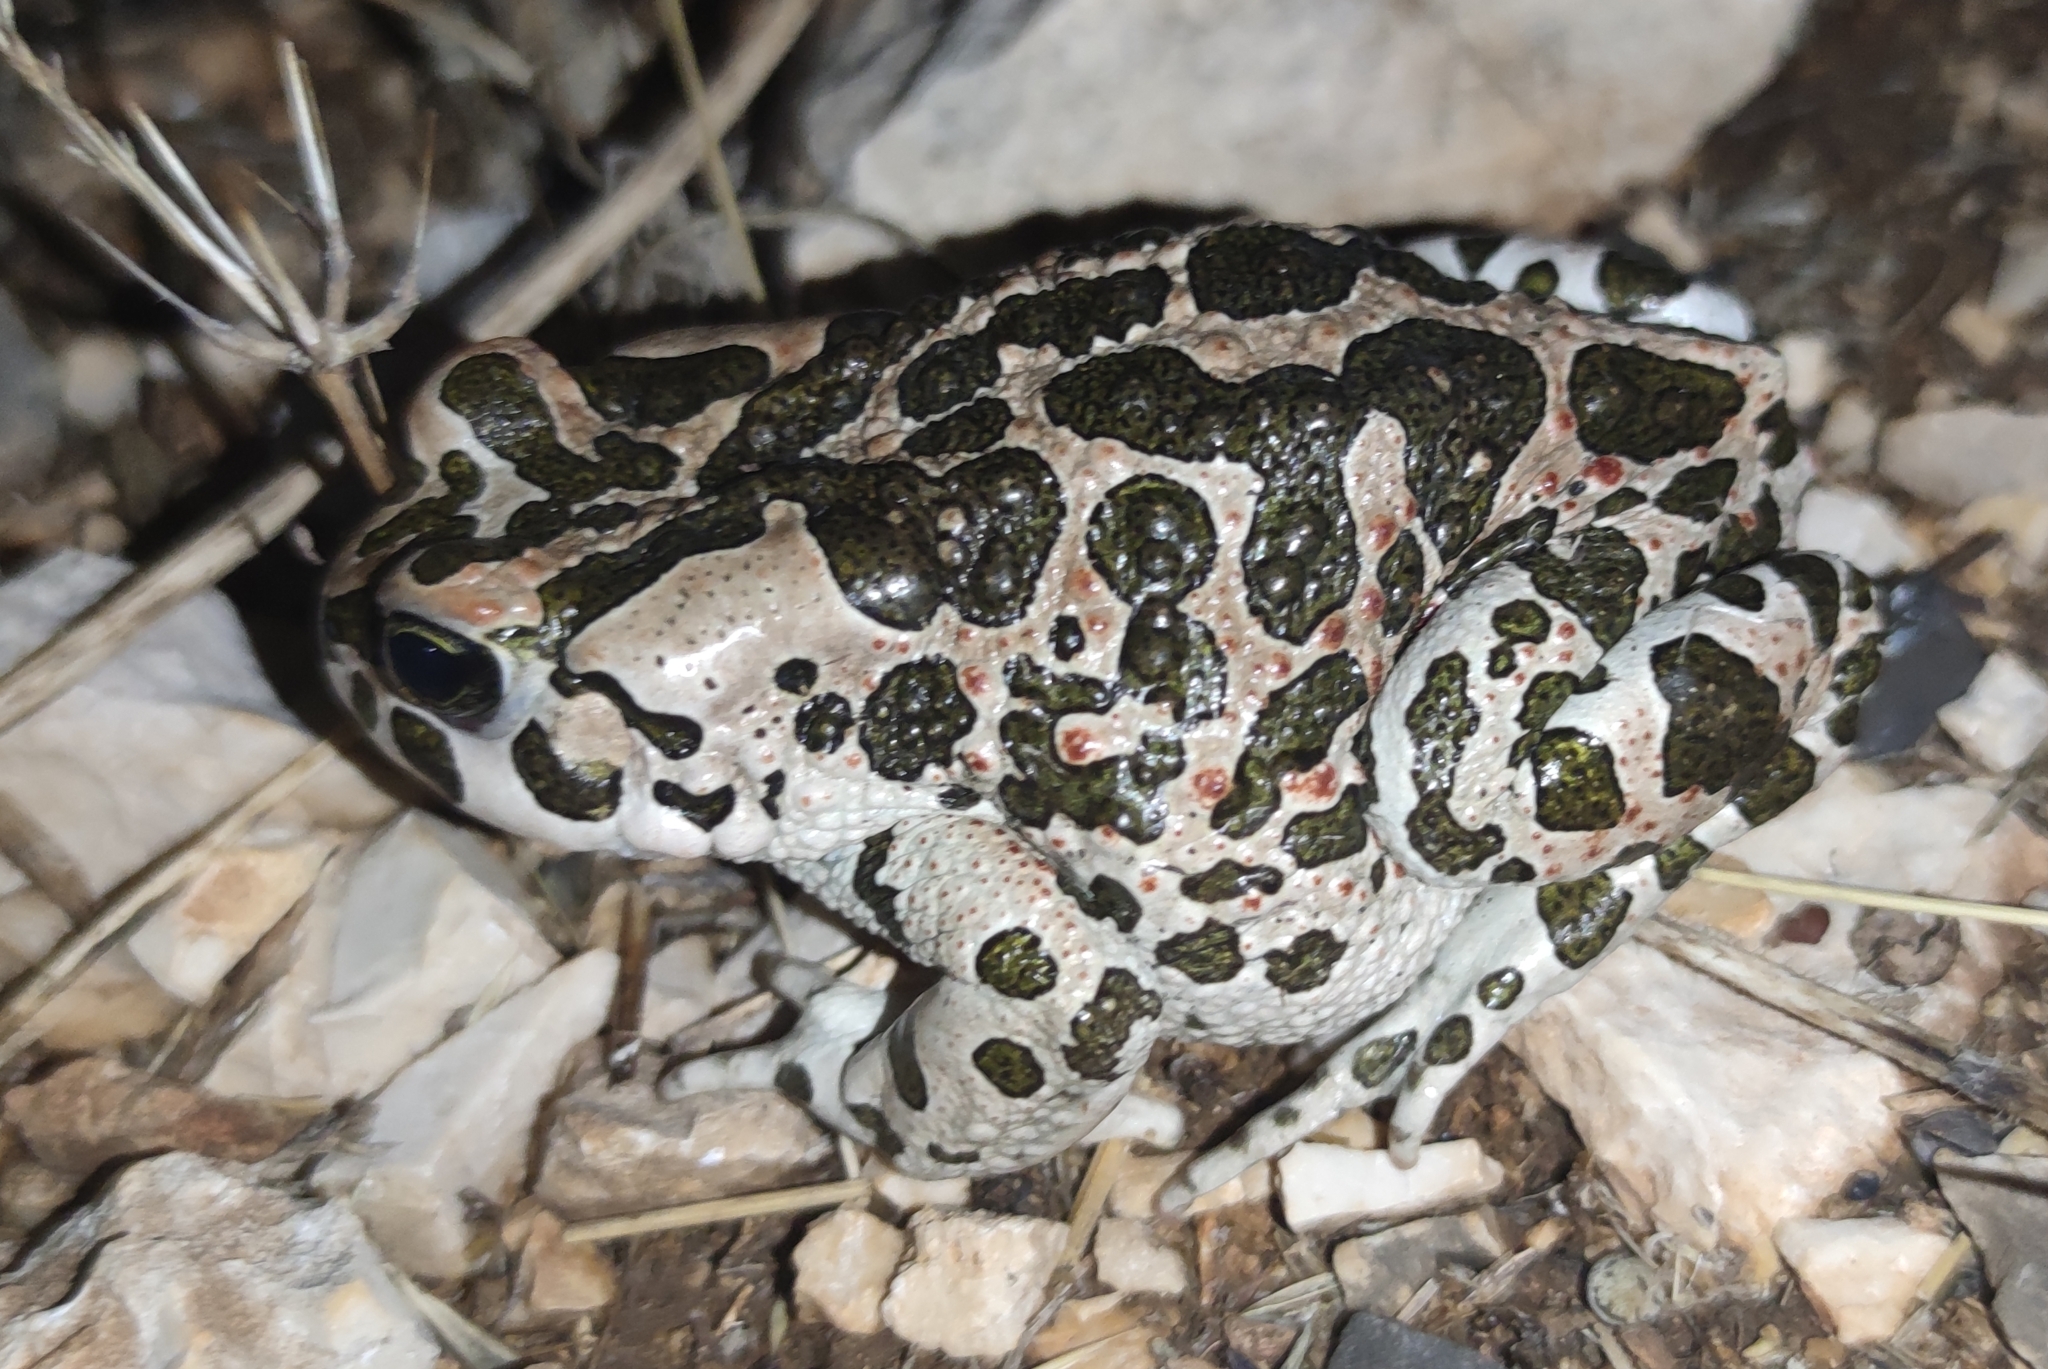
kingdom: Animalia
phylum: Chordata
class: Amphibia
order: Anura
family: Bufonidae
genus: Bufotes
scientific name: Bufotes viridis
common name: European green toad
